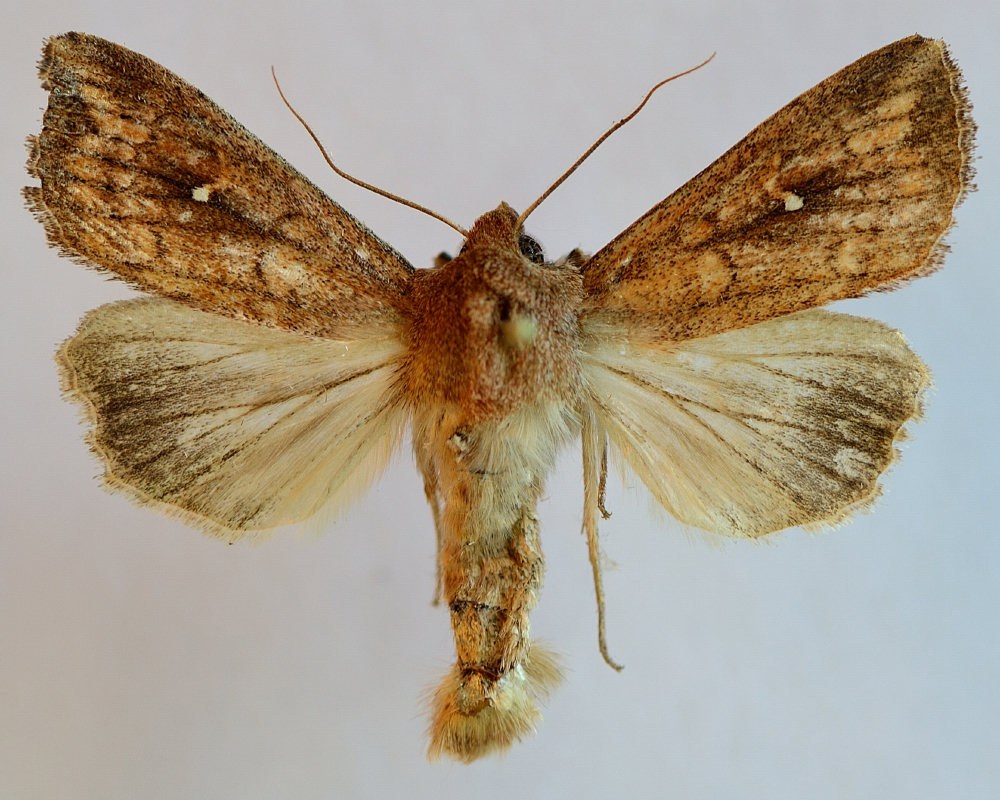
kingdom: Animalia
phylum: Arthropoda
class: Insecta
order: Lepidoptera
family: Noctuidae
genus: Mythimna
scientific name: Mythimna albipuncta
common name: White-point
